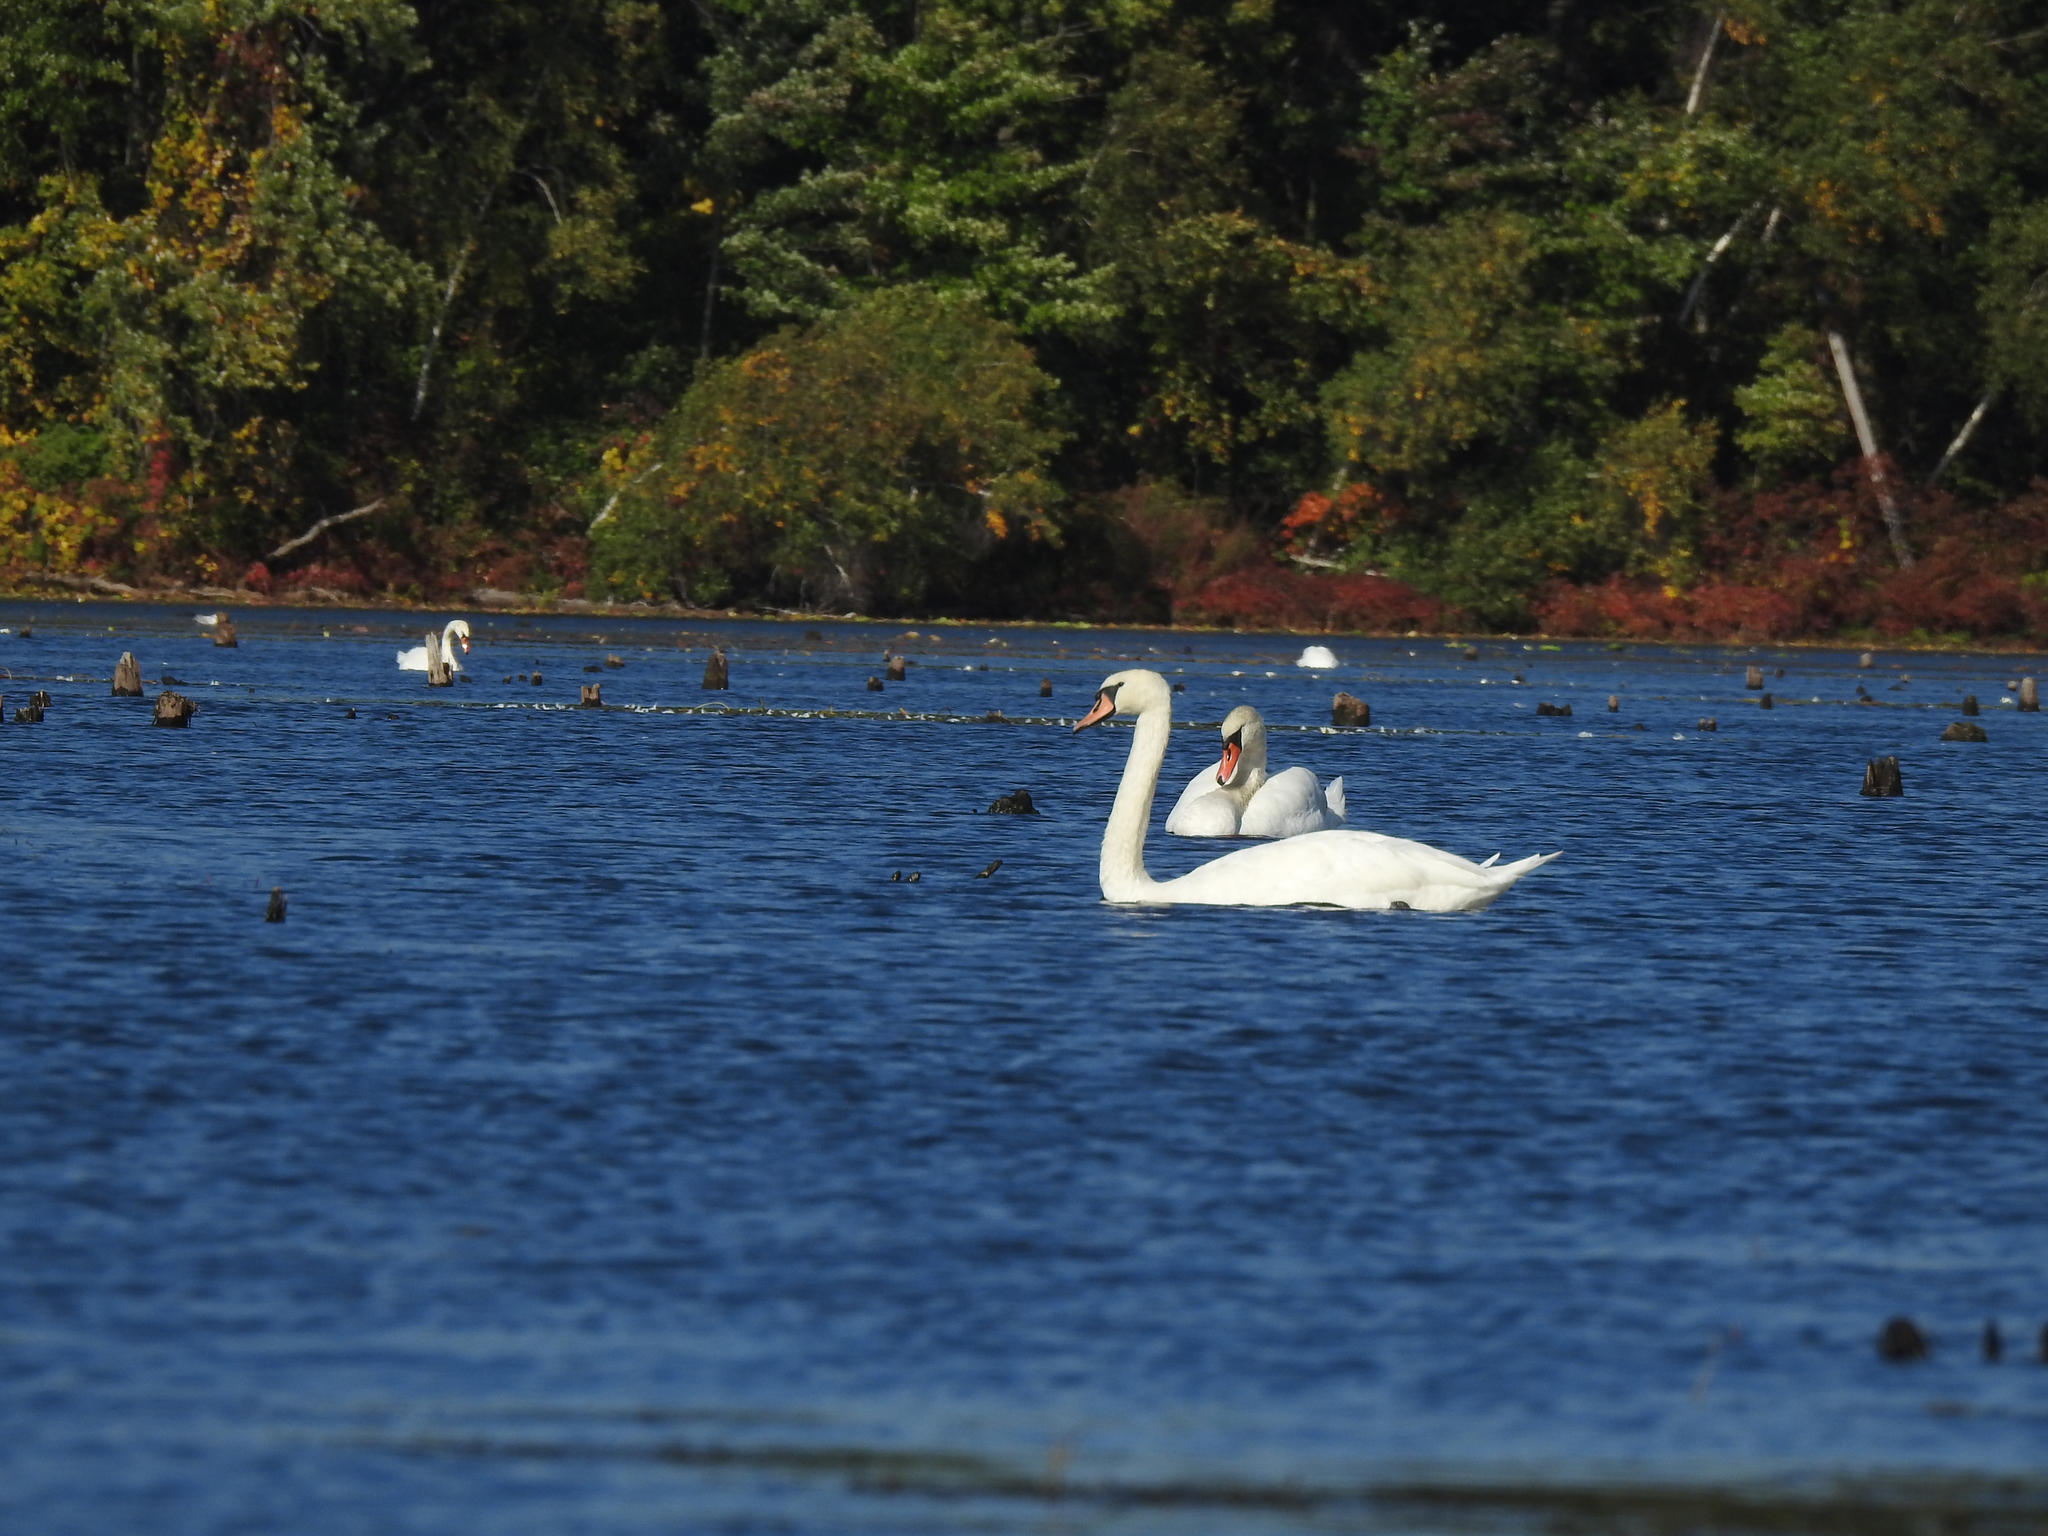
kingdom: Animalia
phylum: Chordata
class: Aves
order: Anseriformes
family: Anatidae
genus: Cygnus
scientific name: Cygnus olor
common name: Mute swan
